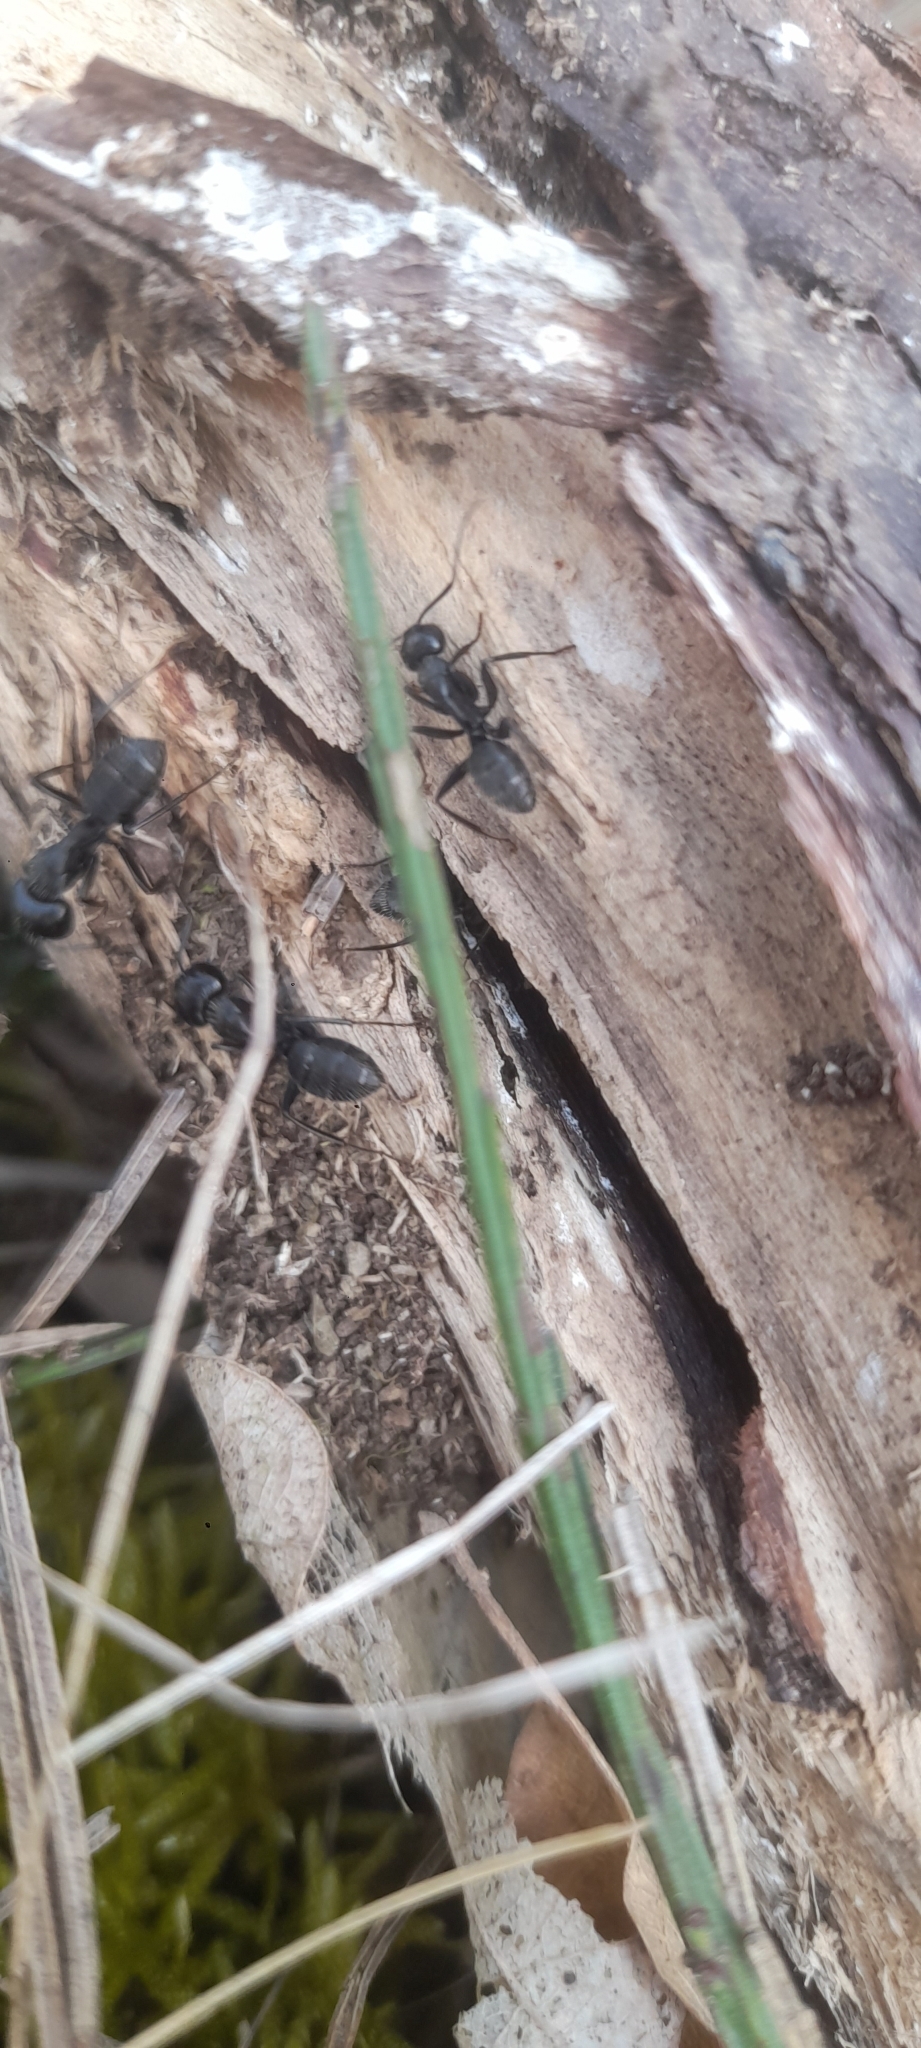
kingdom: Animalia
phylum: Arthropoda
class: Insecta
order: Hymenoptera
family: Formicidae
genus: Camponotus
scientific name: Camponotus vagus
